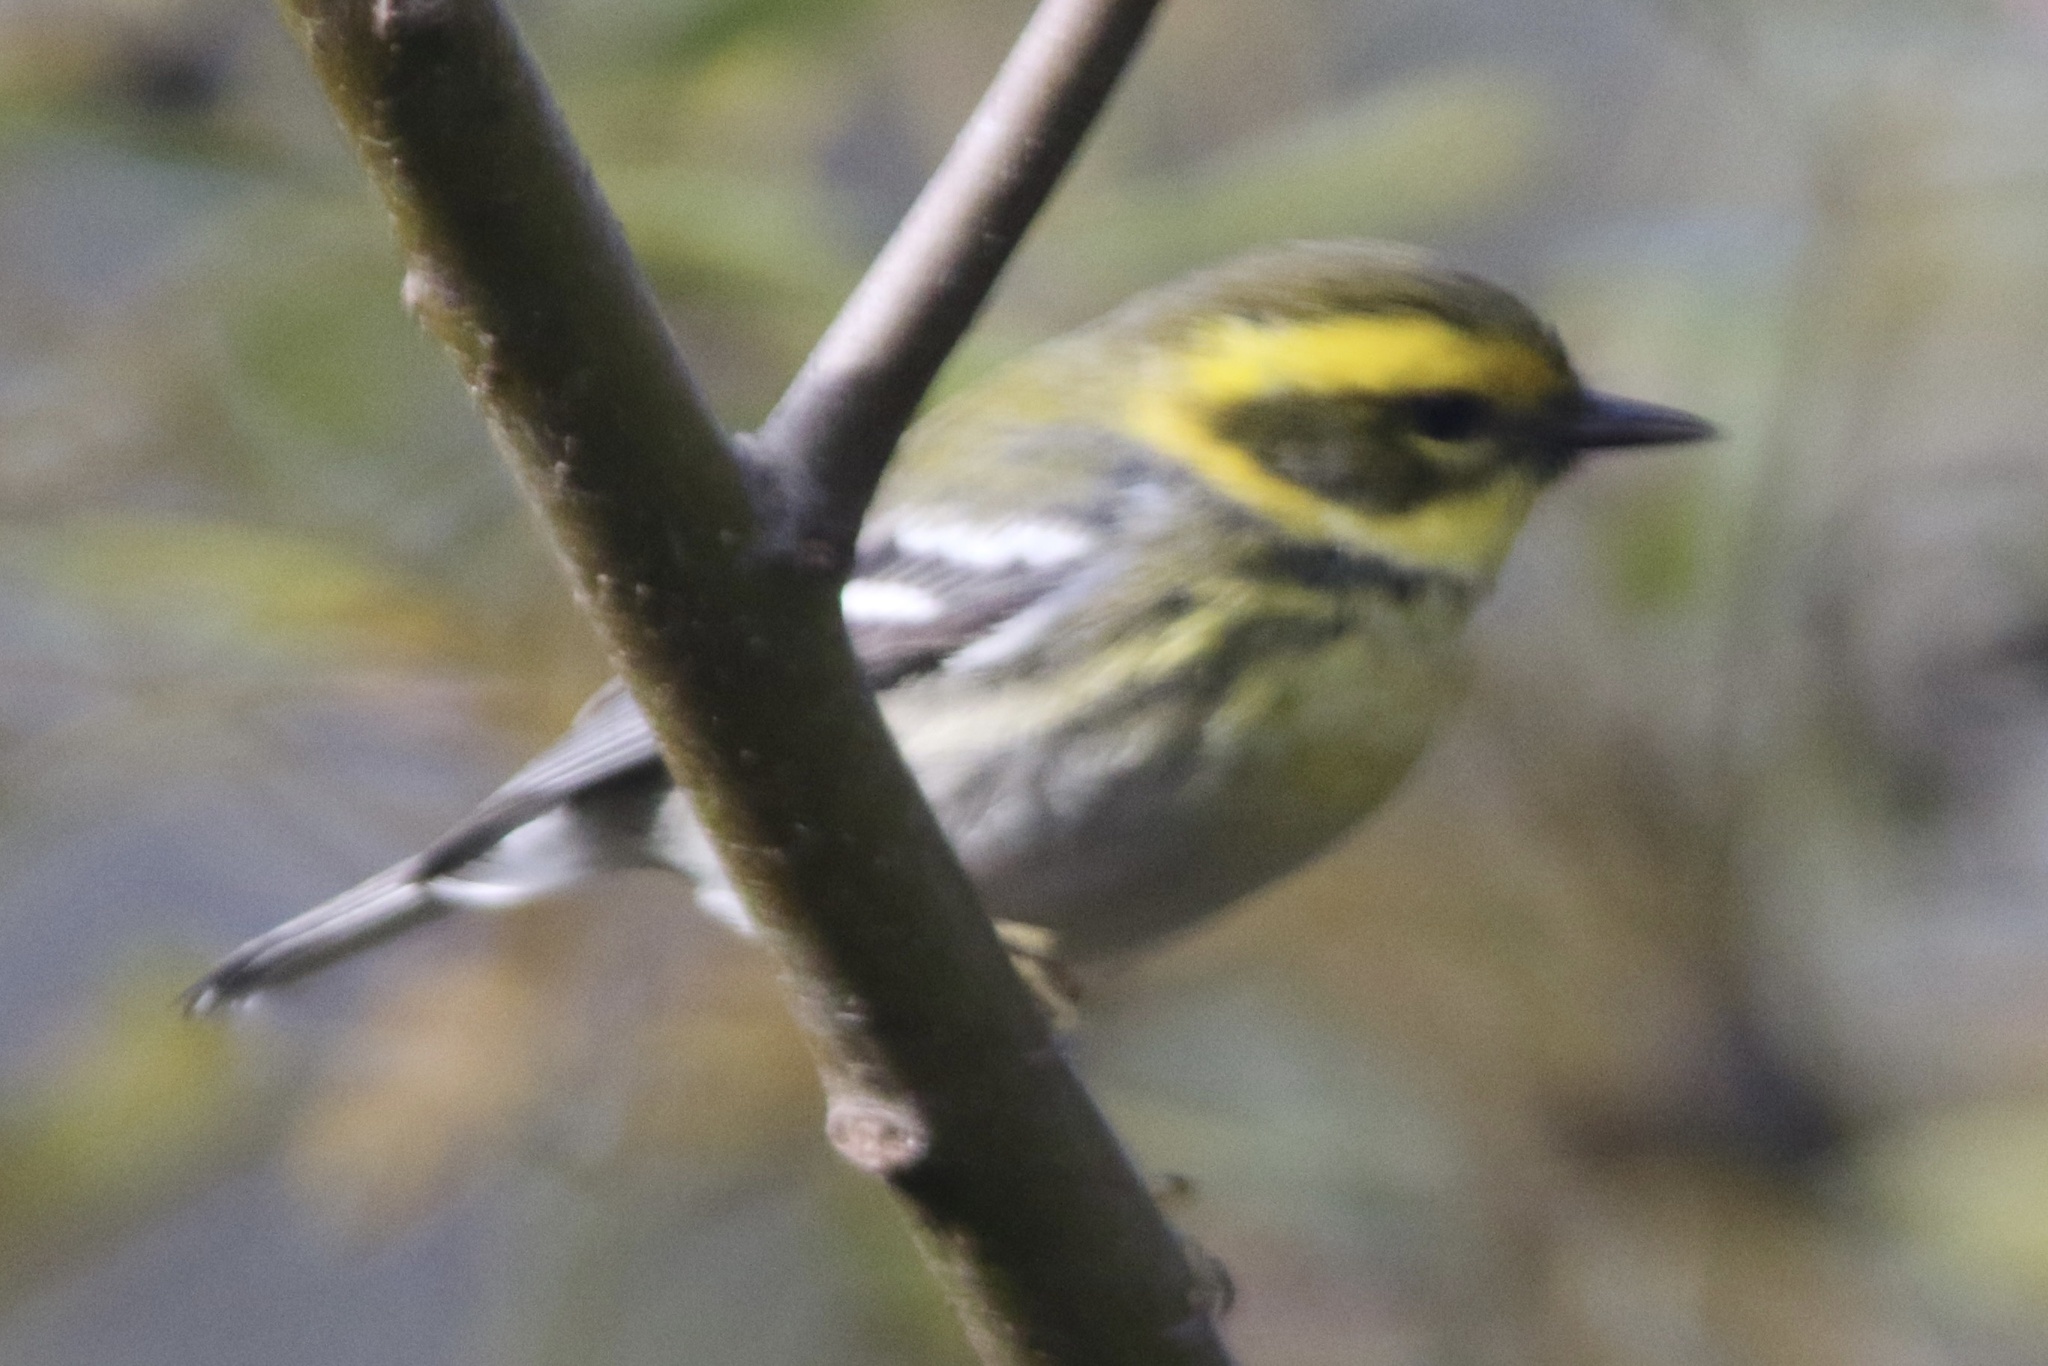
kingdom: Animalia
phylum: Chordata
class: Aves
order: Passeriformes
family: Parulidae
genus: Setophaga
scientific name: Setophaga townsendi
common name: Townsend's warbler
